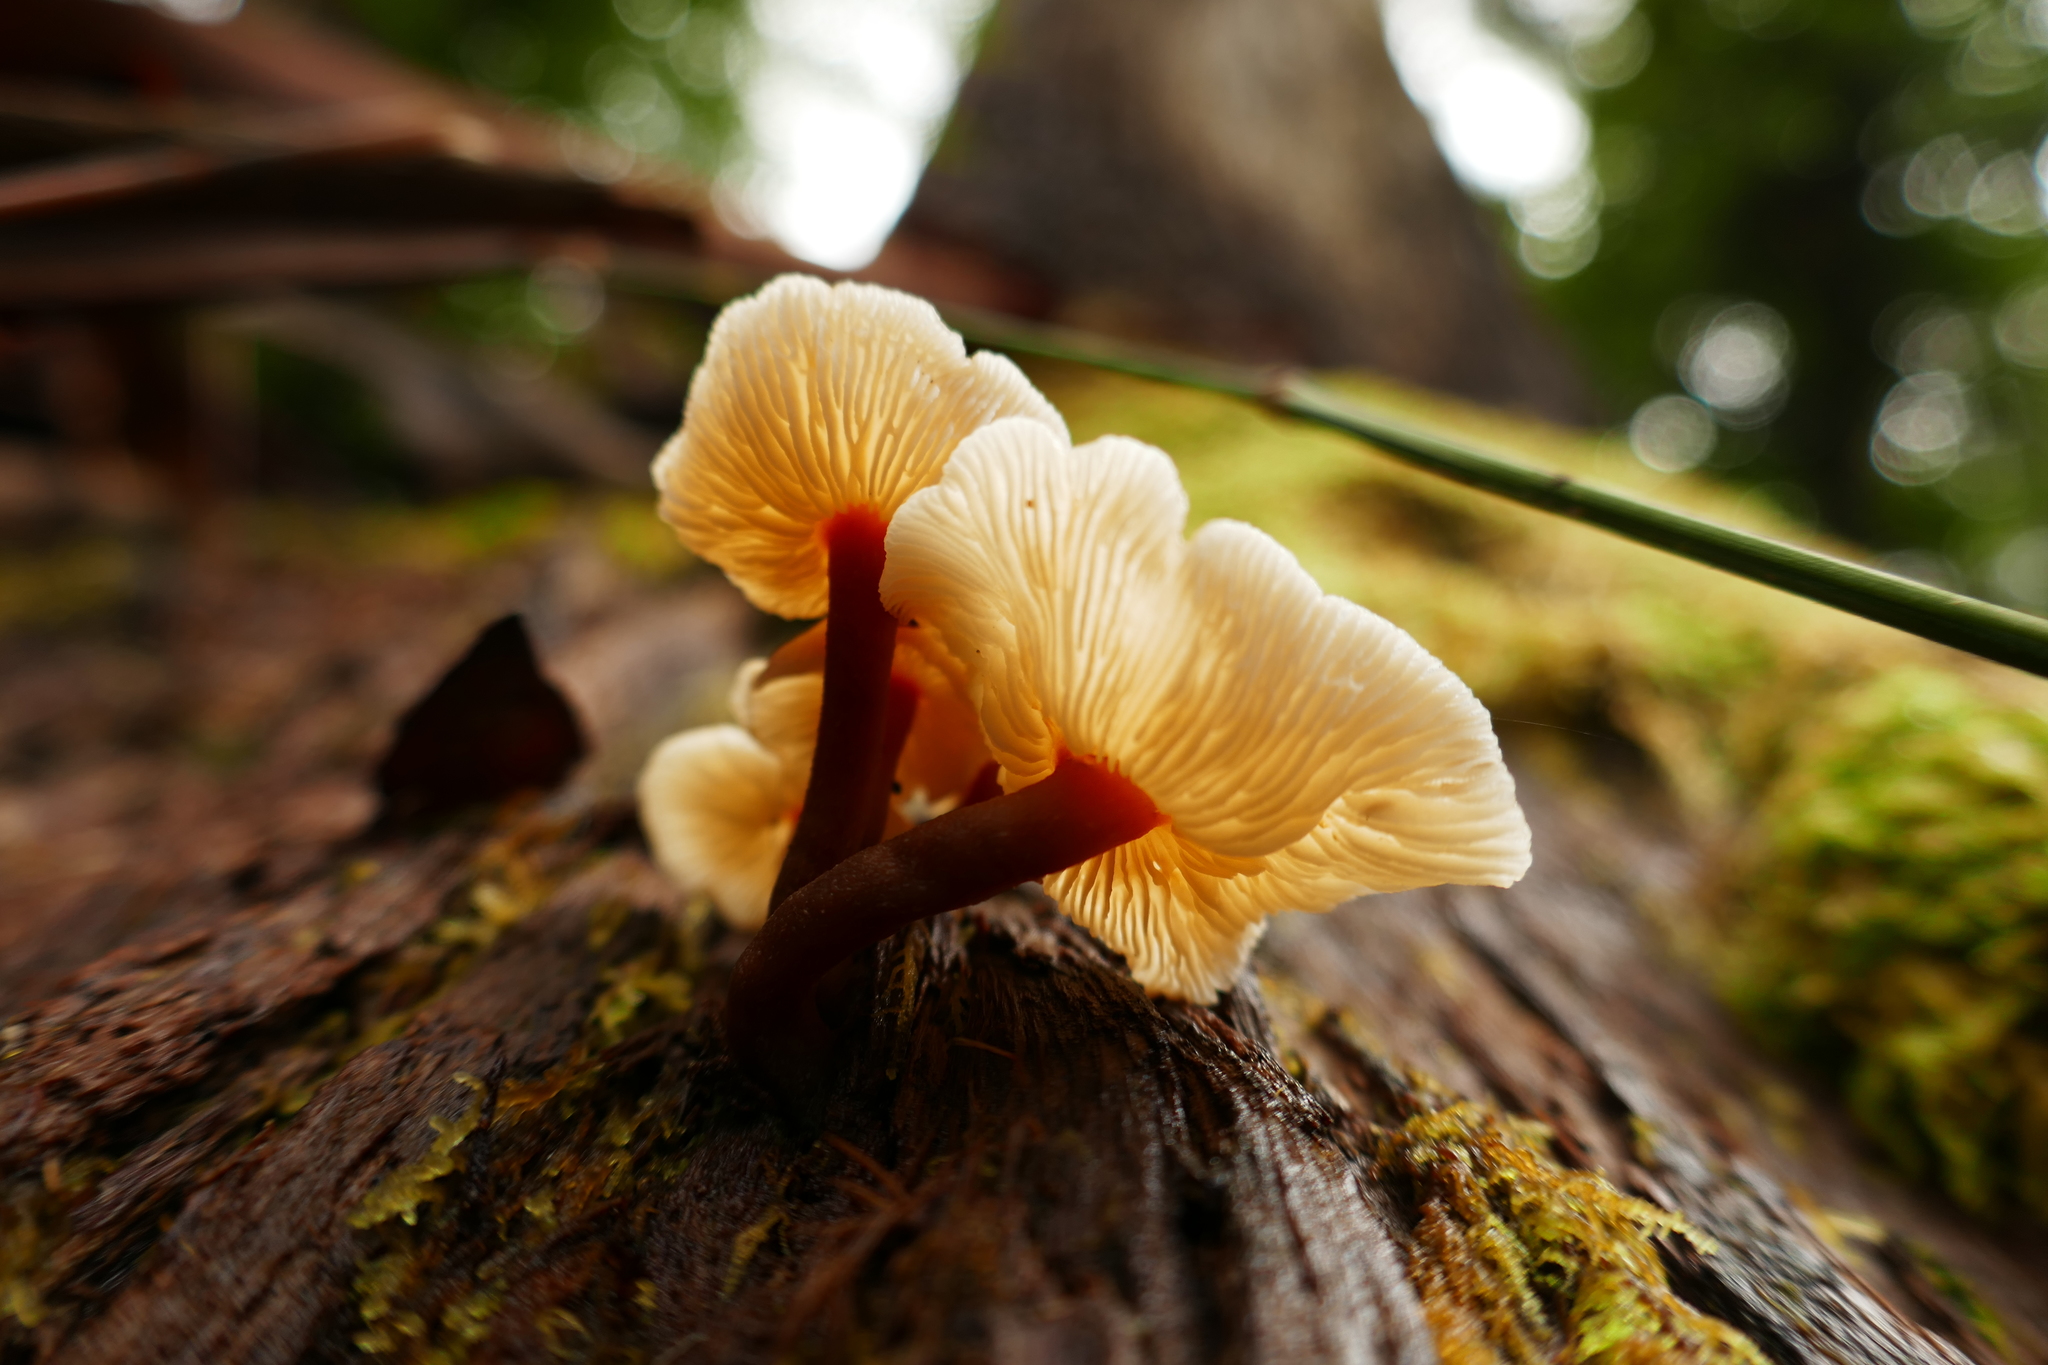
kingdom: Fungi
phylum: Basidiomycota
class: Agaricomycetes
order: Agaricales
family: Omphalotaceae
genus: Rhodocollybia
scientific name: Rhodocollybia
